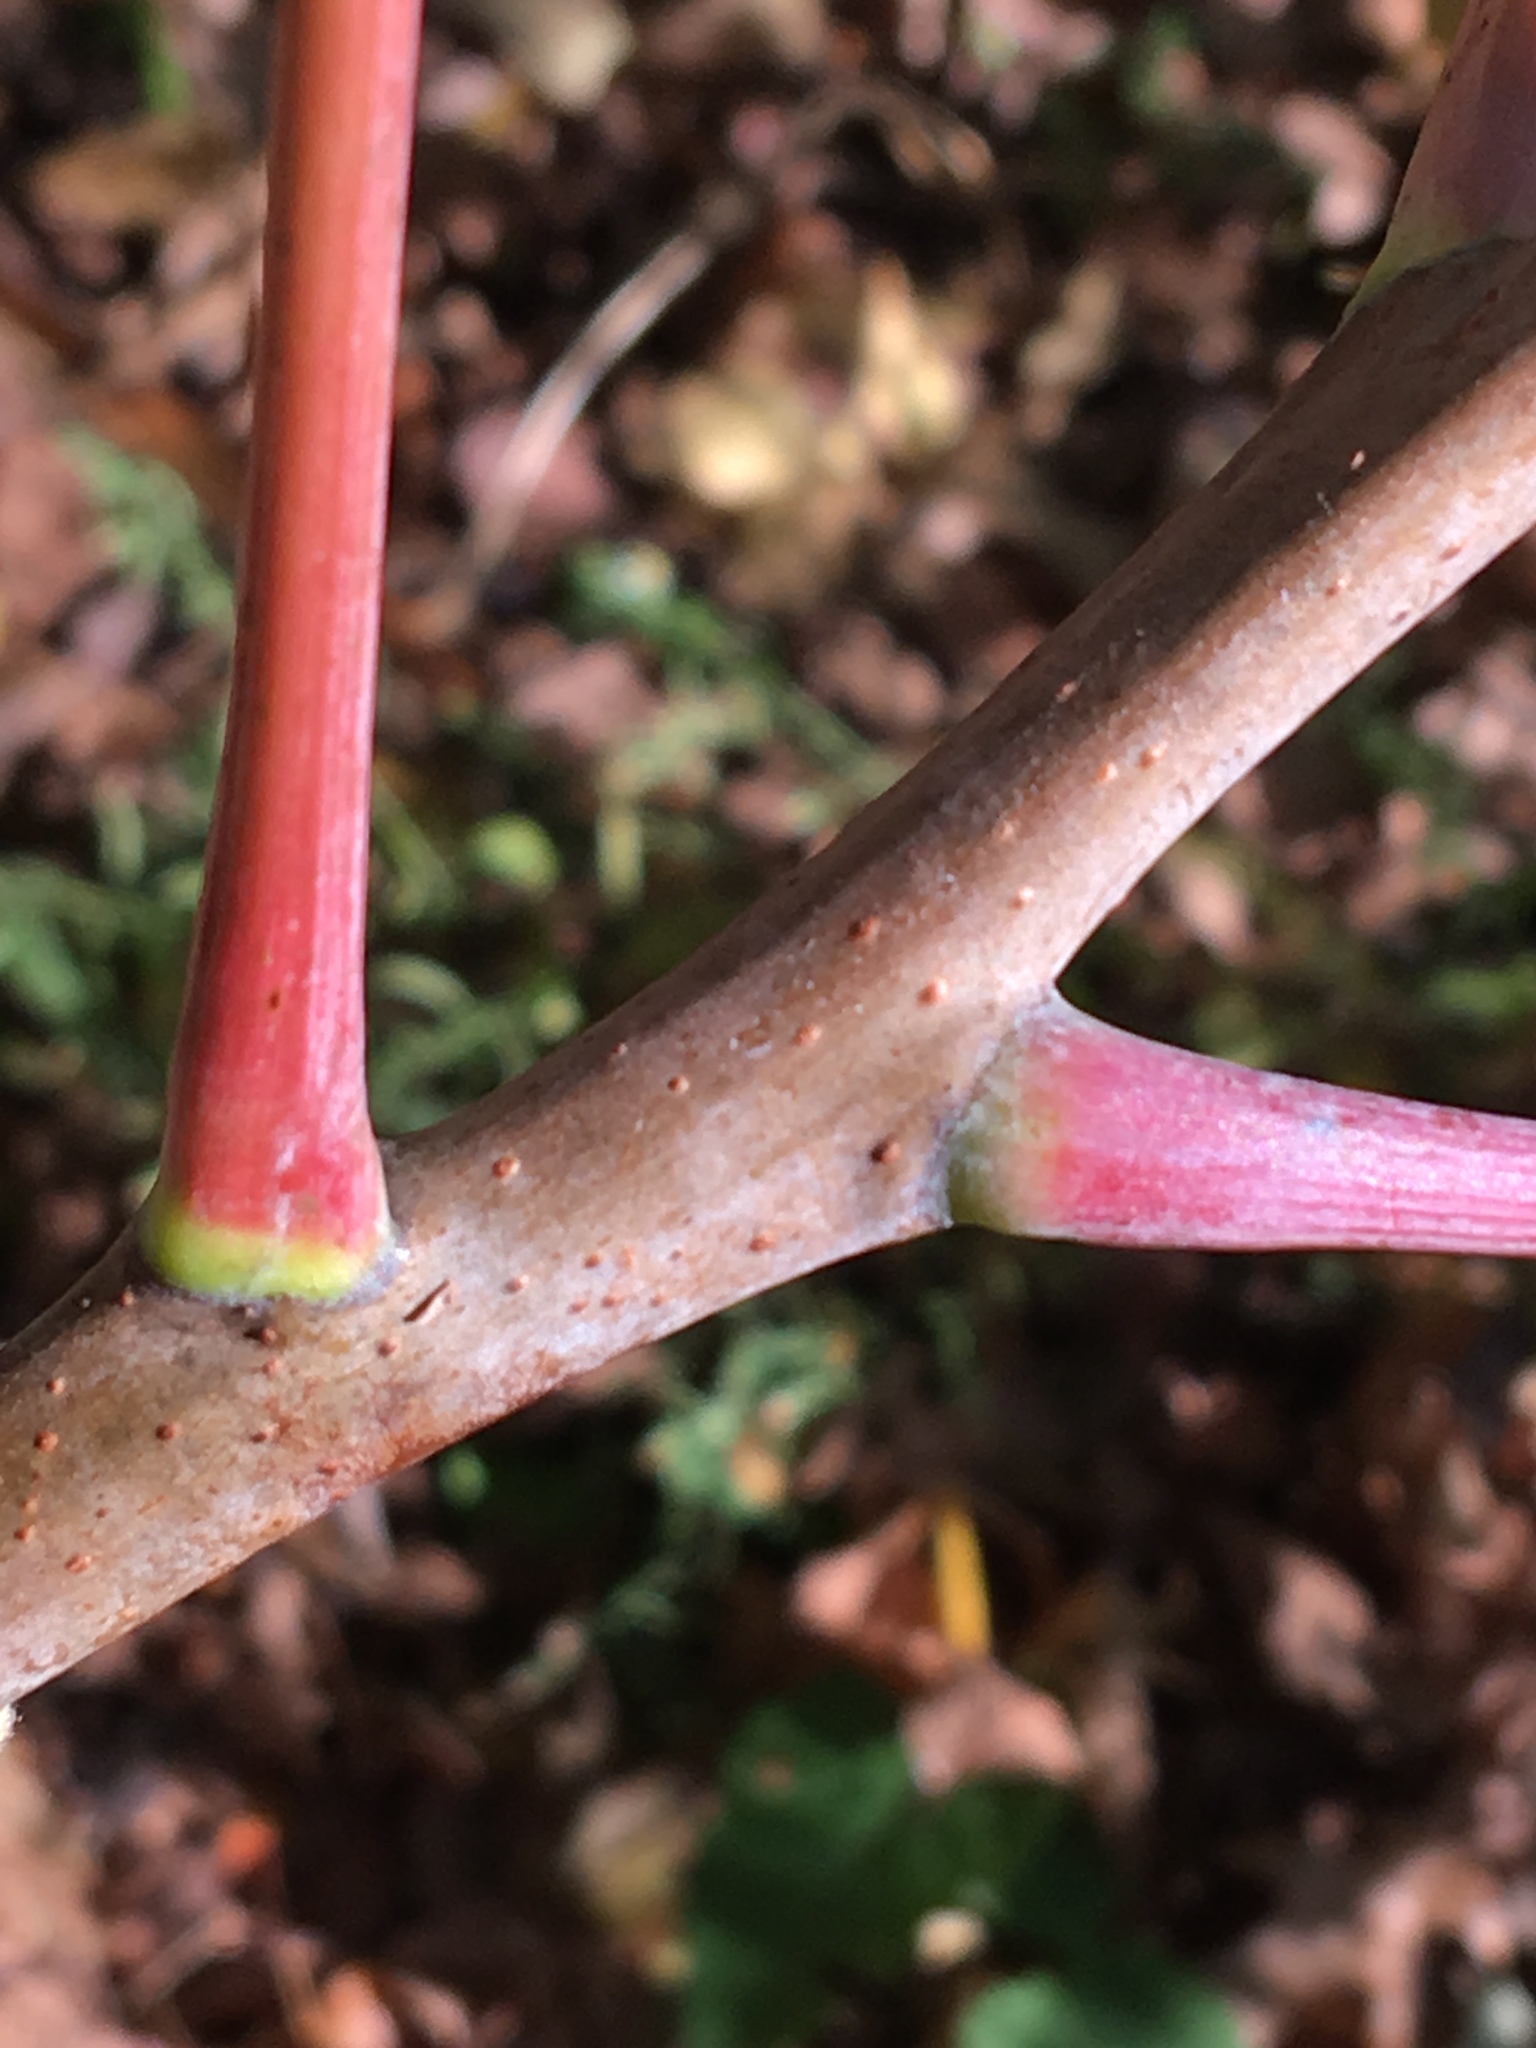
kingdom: Plantae
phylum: Tracheophyta
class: Magnoliopsida
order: Sapindales
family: Anacardiaceae
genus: Rhus
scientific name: Rhus glabra
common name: Scarlet sumac
